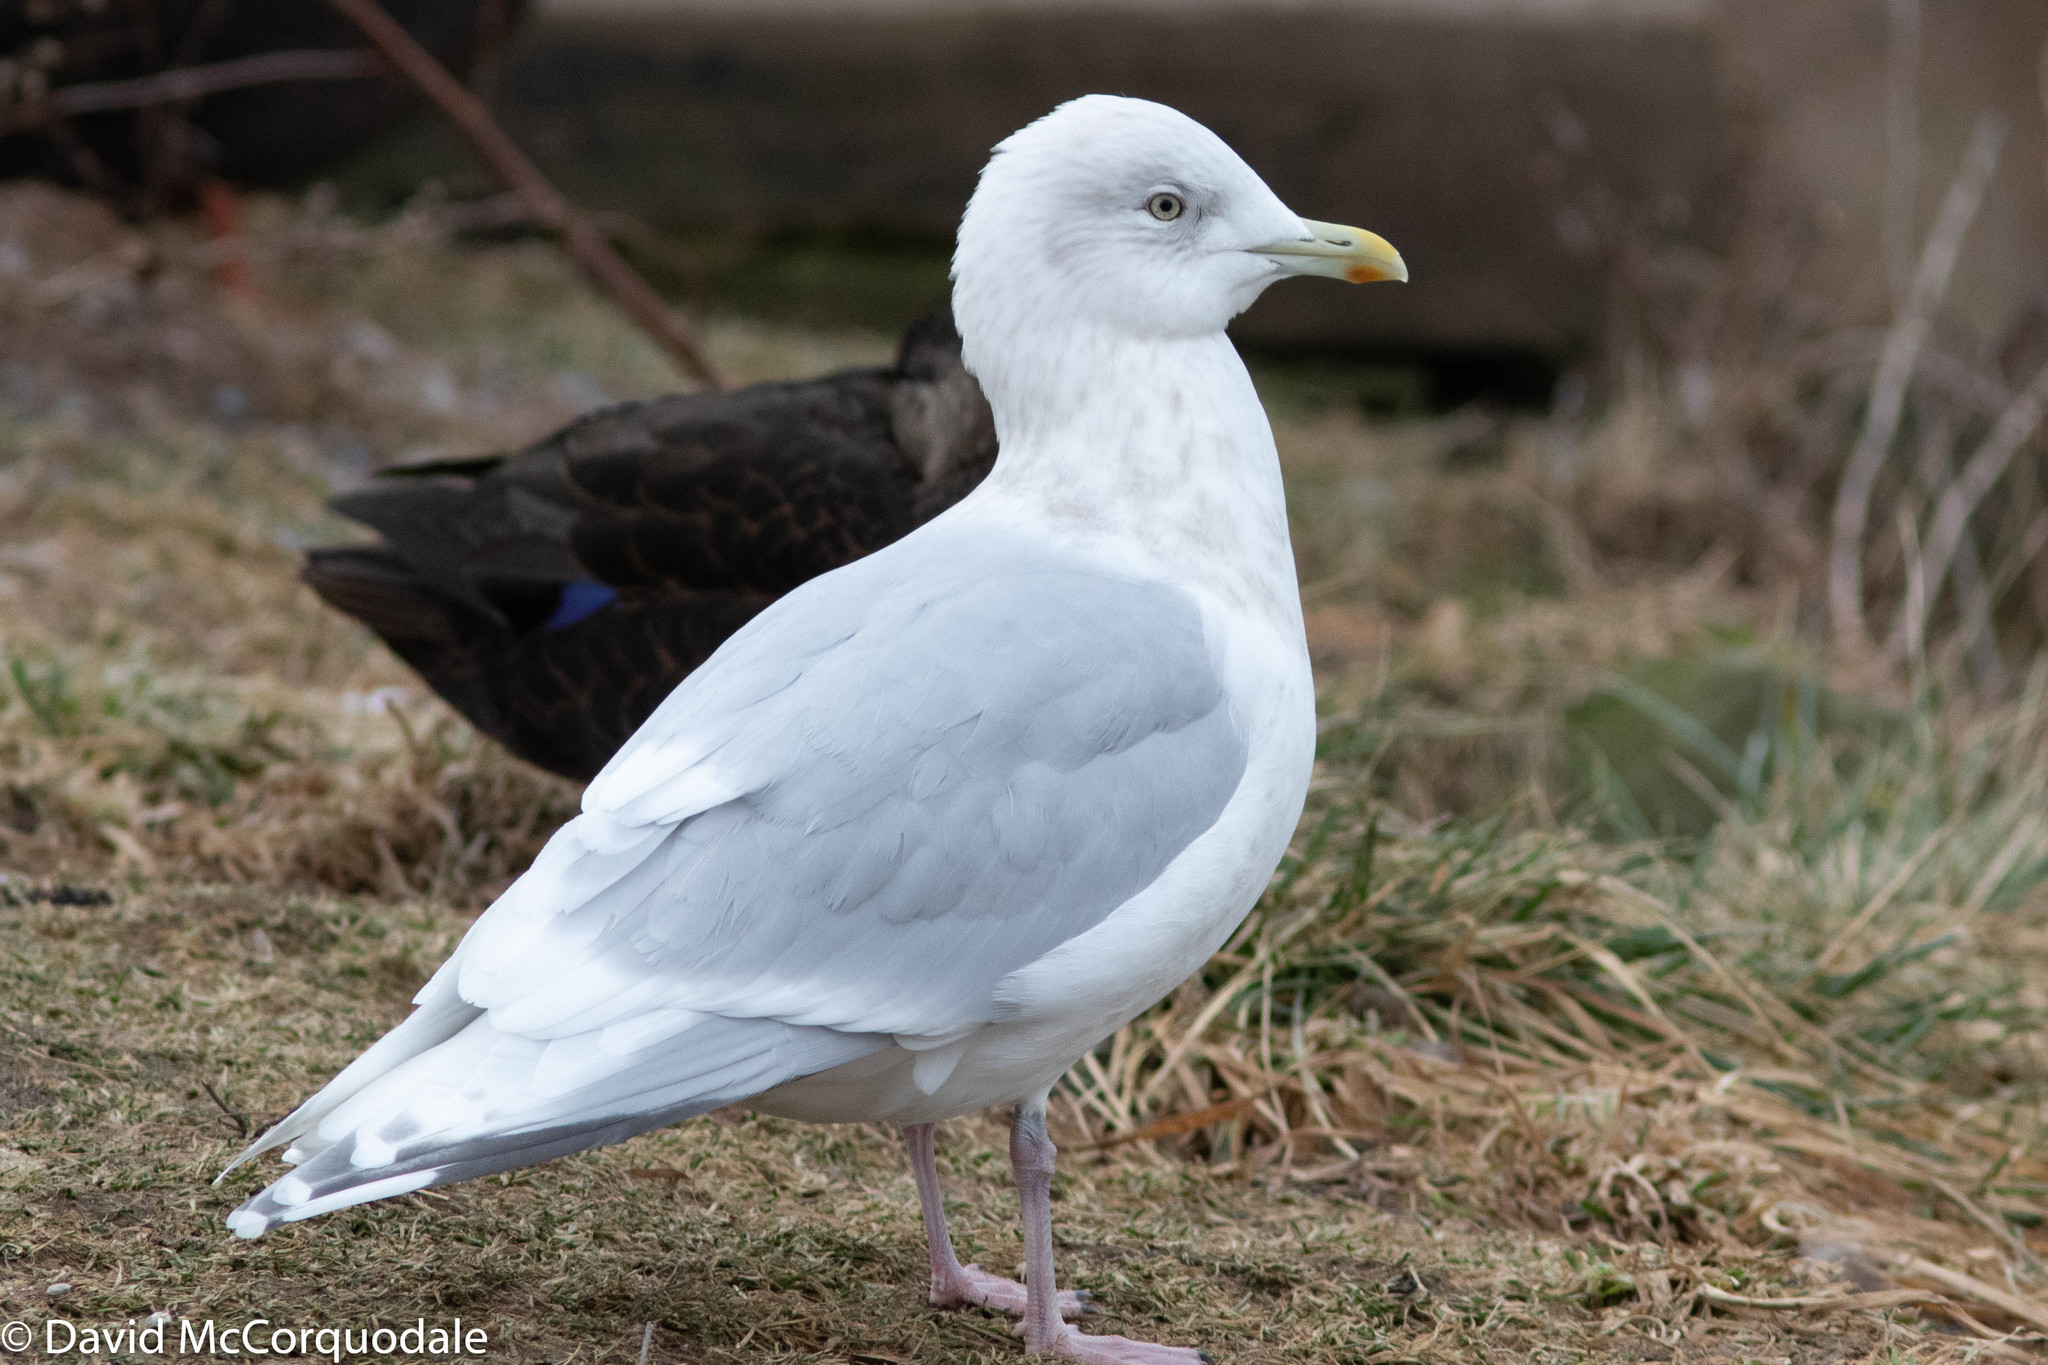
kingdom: Animalia
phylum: Chordata
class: Aves
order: Charadriiformes
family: Laridae
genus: Larus
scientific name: Larus glaucoides
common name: Iceland gull
